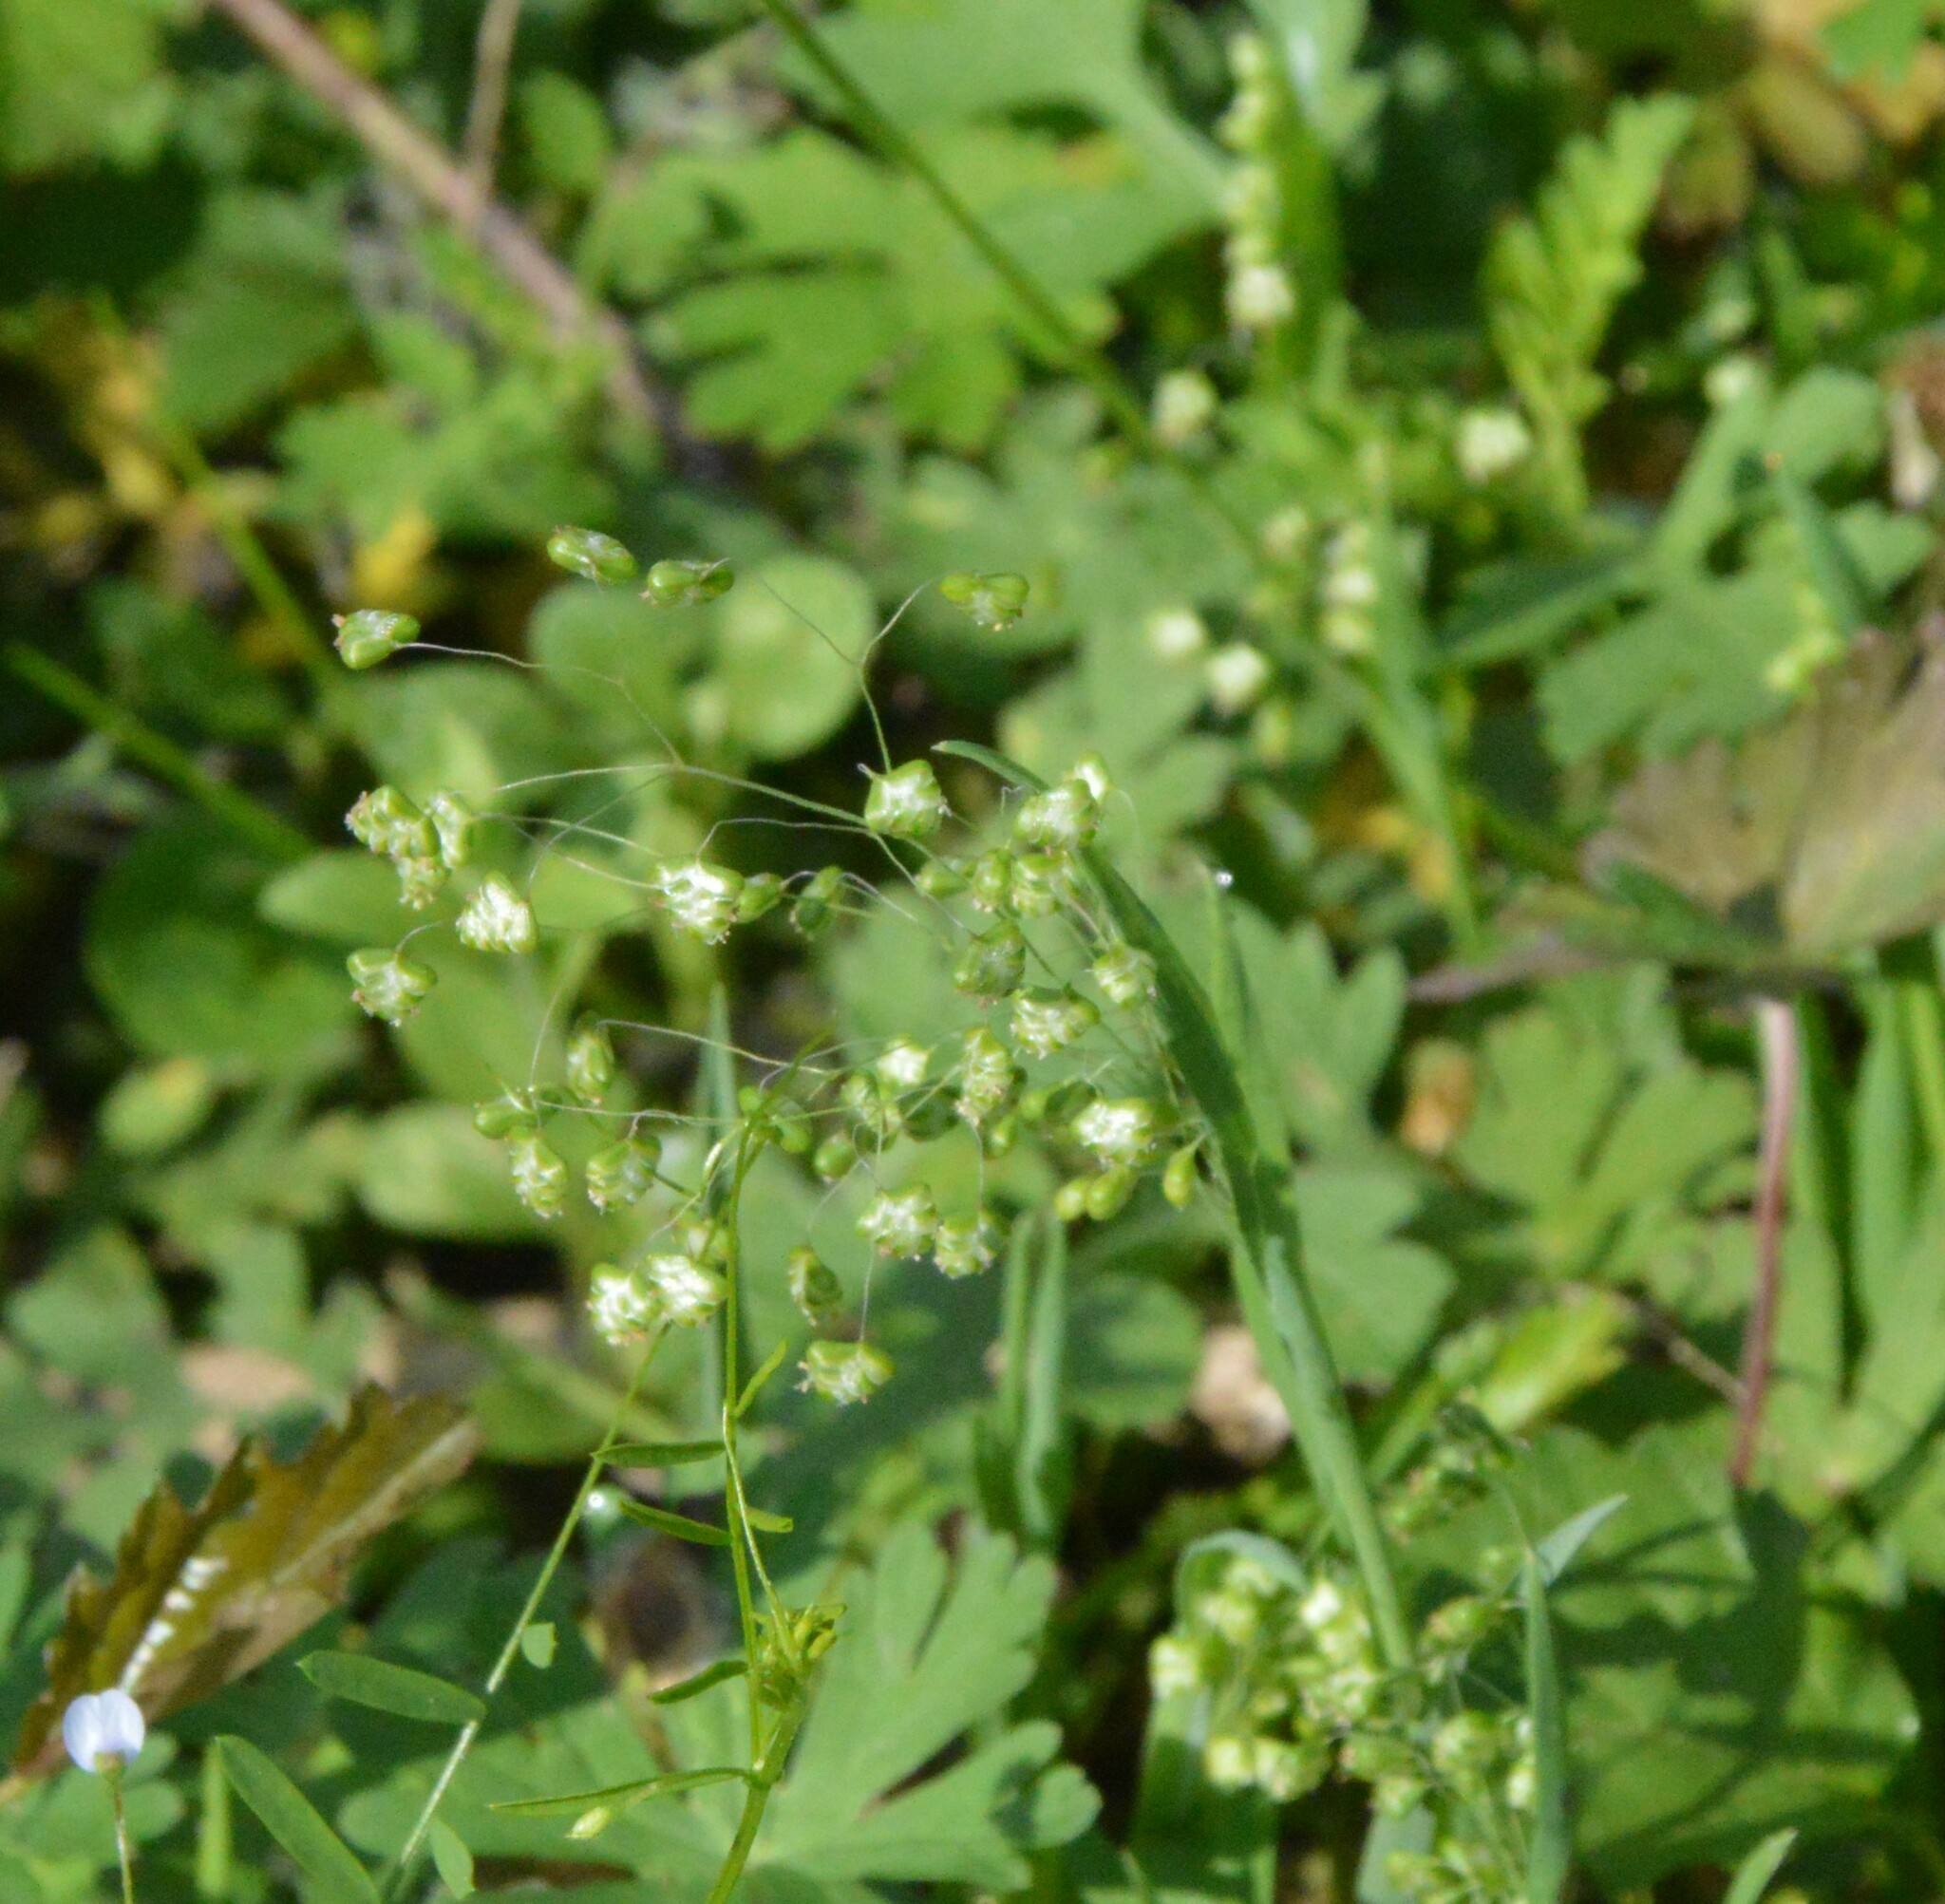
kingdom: Plantae
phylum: Tracheophyta
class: Liliopsida
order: Poales
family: Poaceae
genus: Briza
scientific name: Briza minor
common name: Lesser quaking-grass
